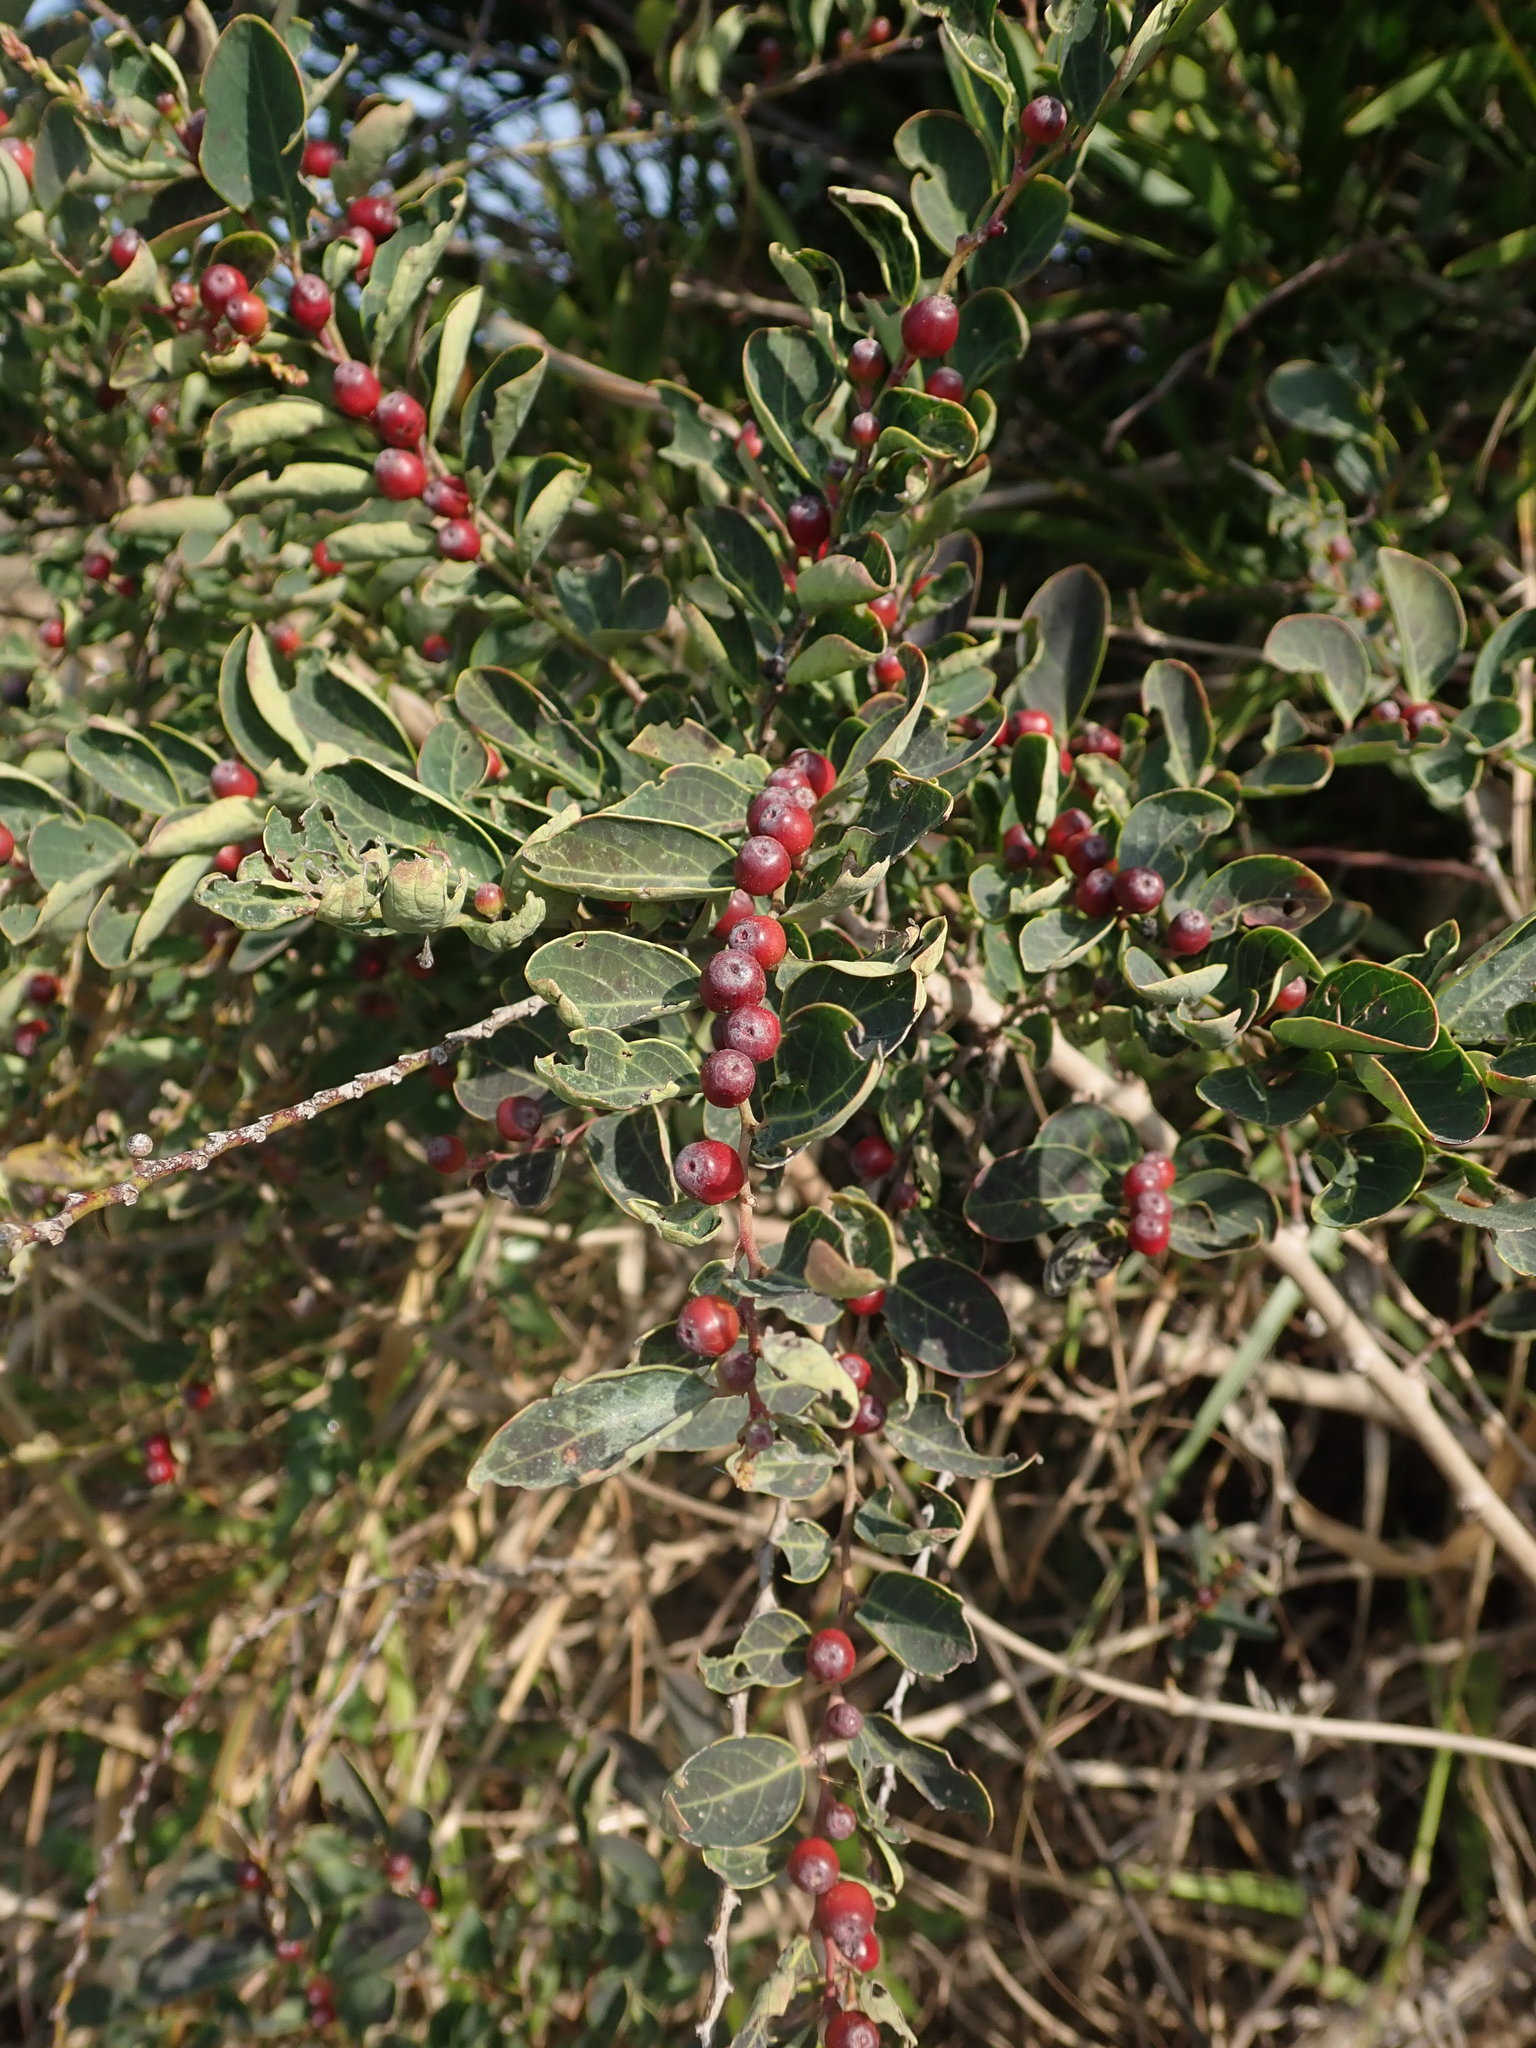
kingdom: Plantae
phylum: Tracheophyta
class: Magnoliopsida
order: Malpighiales
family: Phyllanthaceae
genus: Breynia
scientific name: Breynia vitis-idaea
